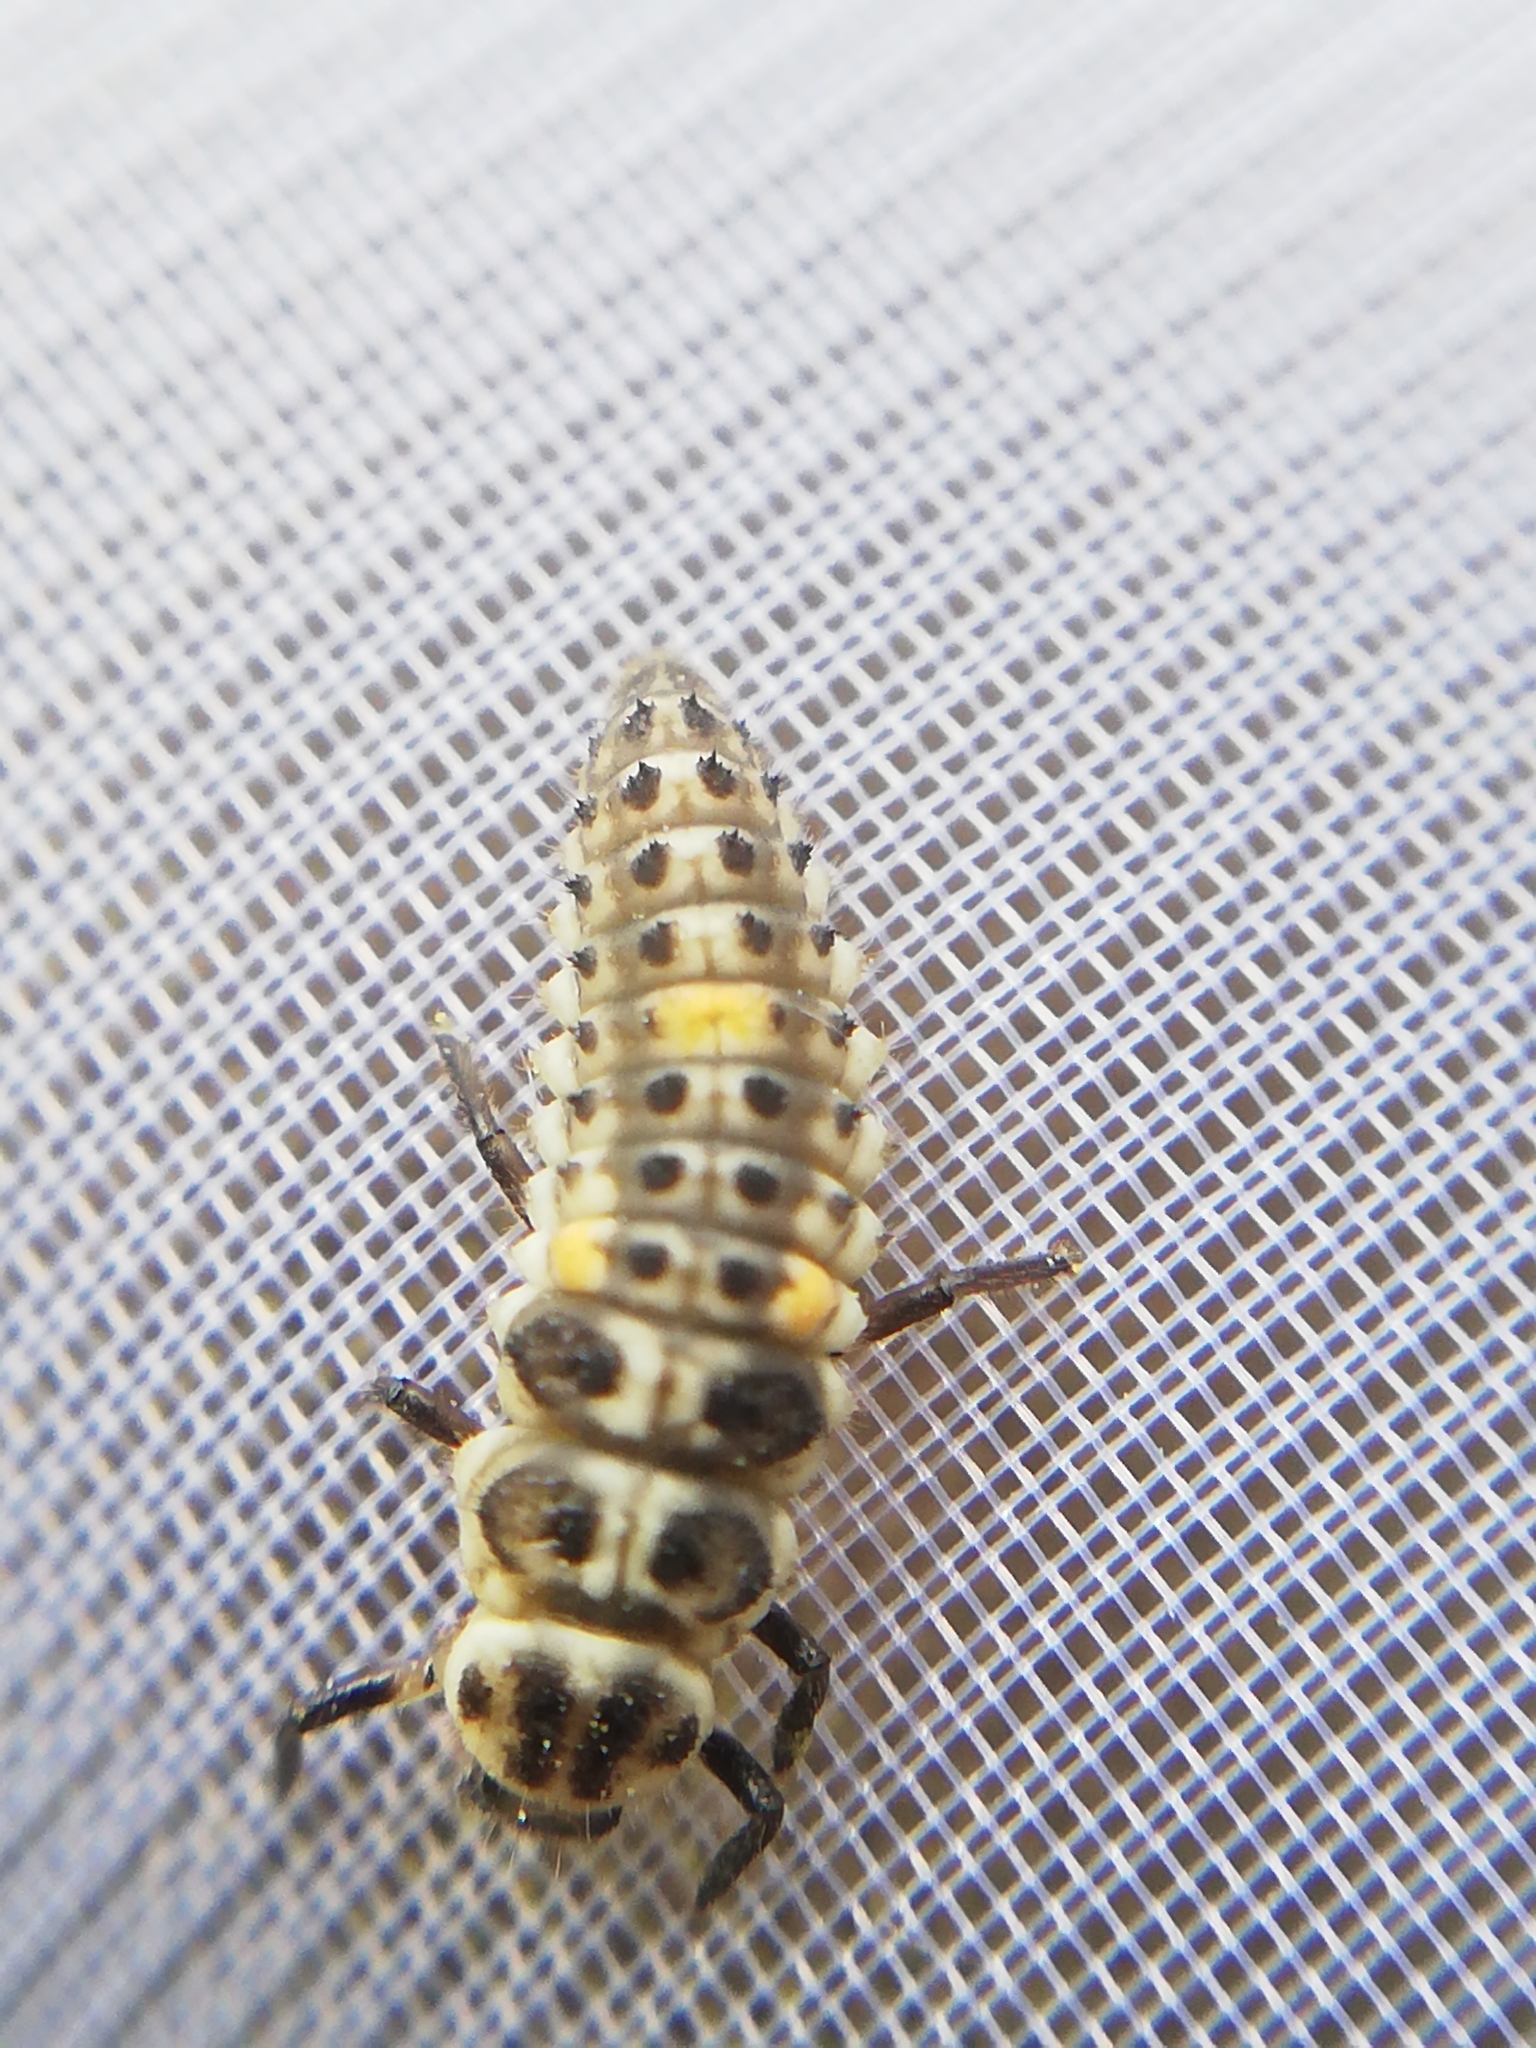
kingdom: Animalia
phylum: Arthropoda
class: Insecta
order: Coleoptera
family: Coccinellidae
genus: Adalia
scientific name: Adalia decempunctata
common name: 10-spot ladybird
